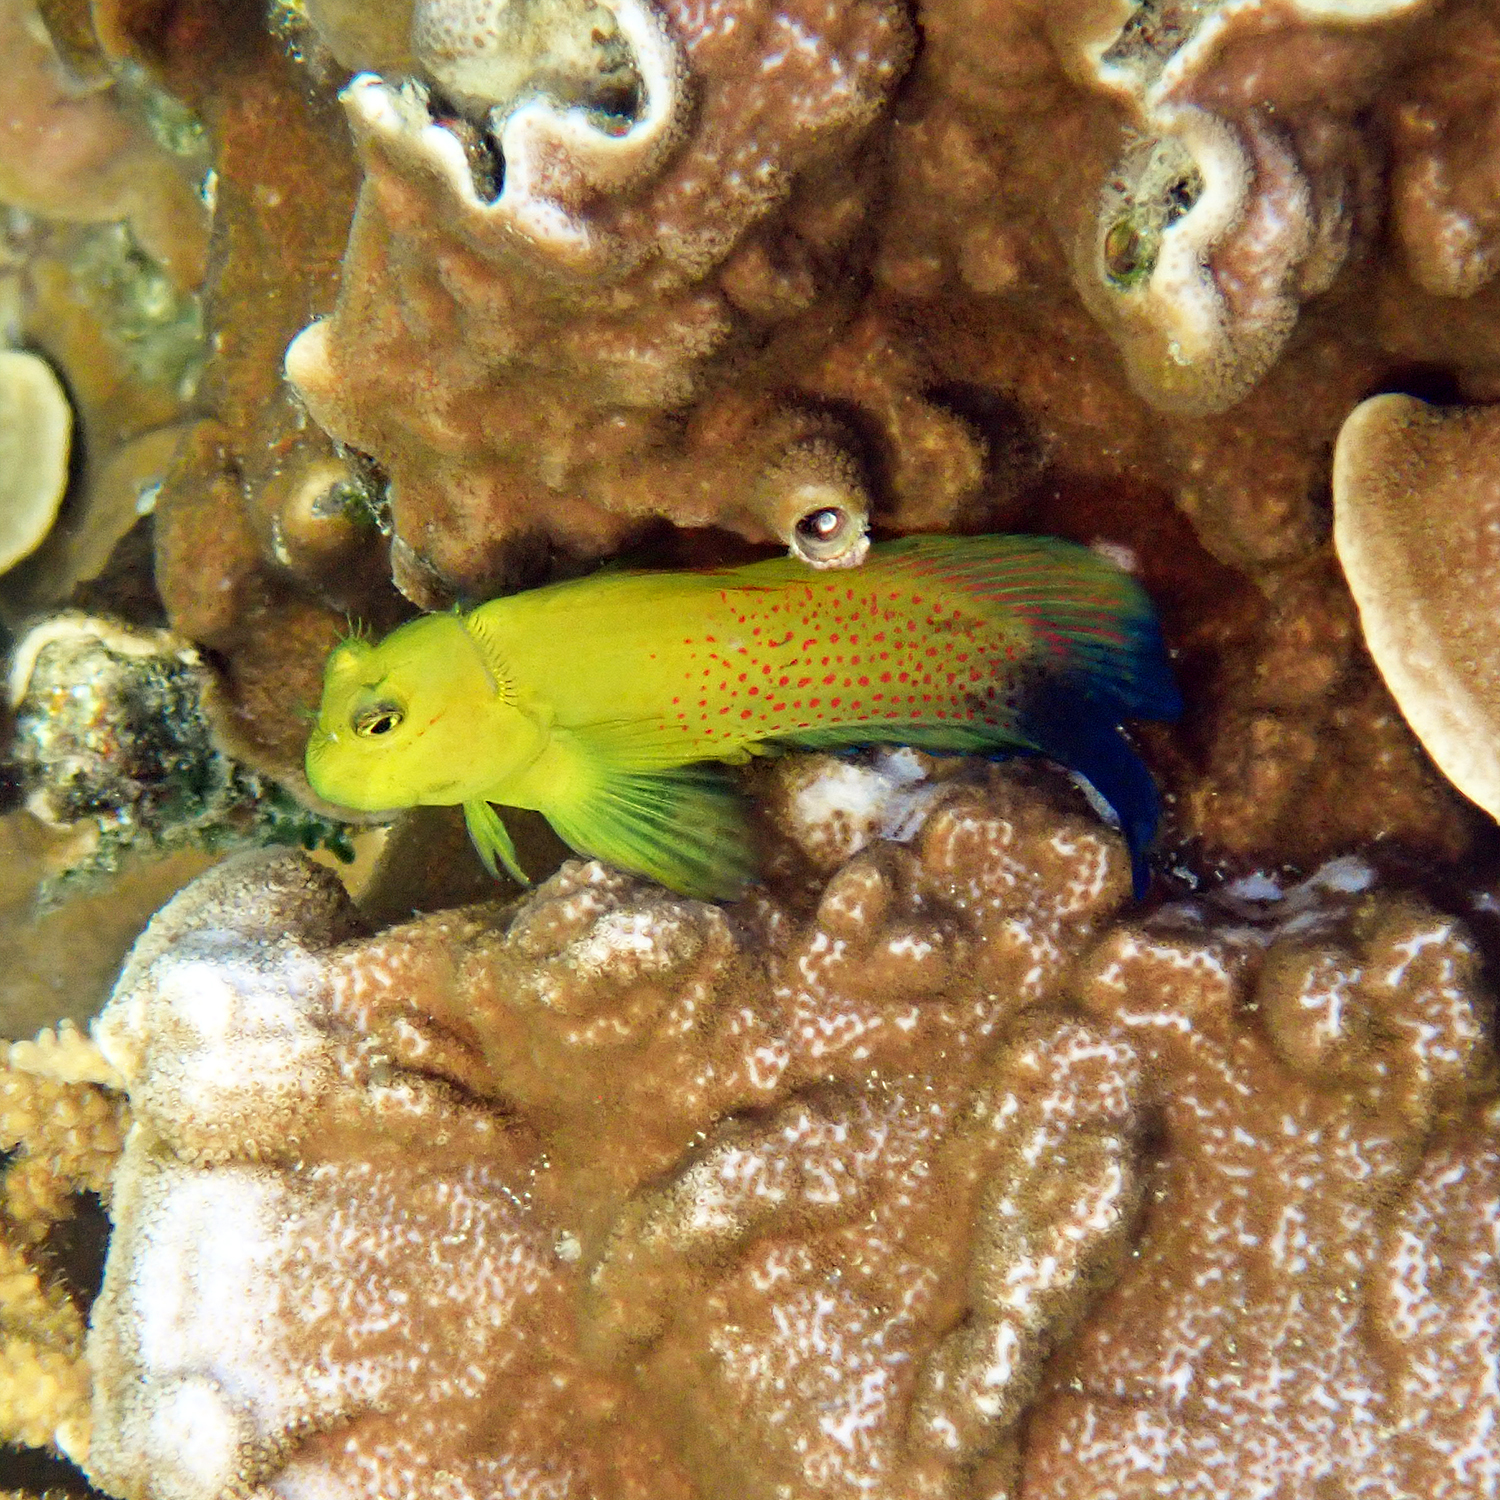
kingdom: Animalia
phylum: Chordata
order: Perciformes
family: Blenniidae
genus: Cirripectes
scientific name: Cirripectes chelomatus
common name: Lady musgrave blenny
